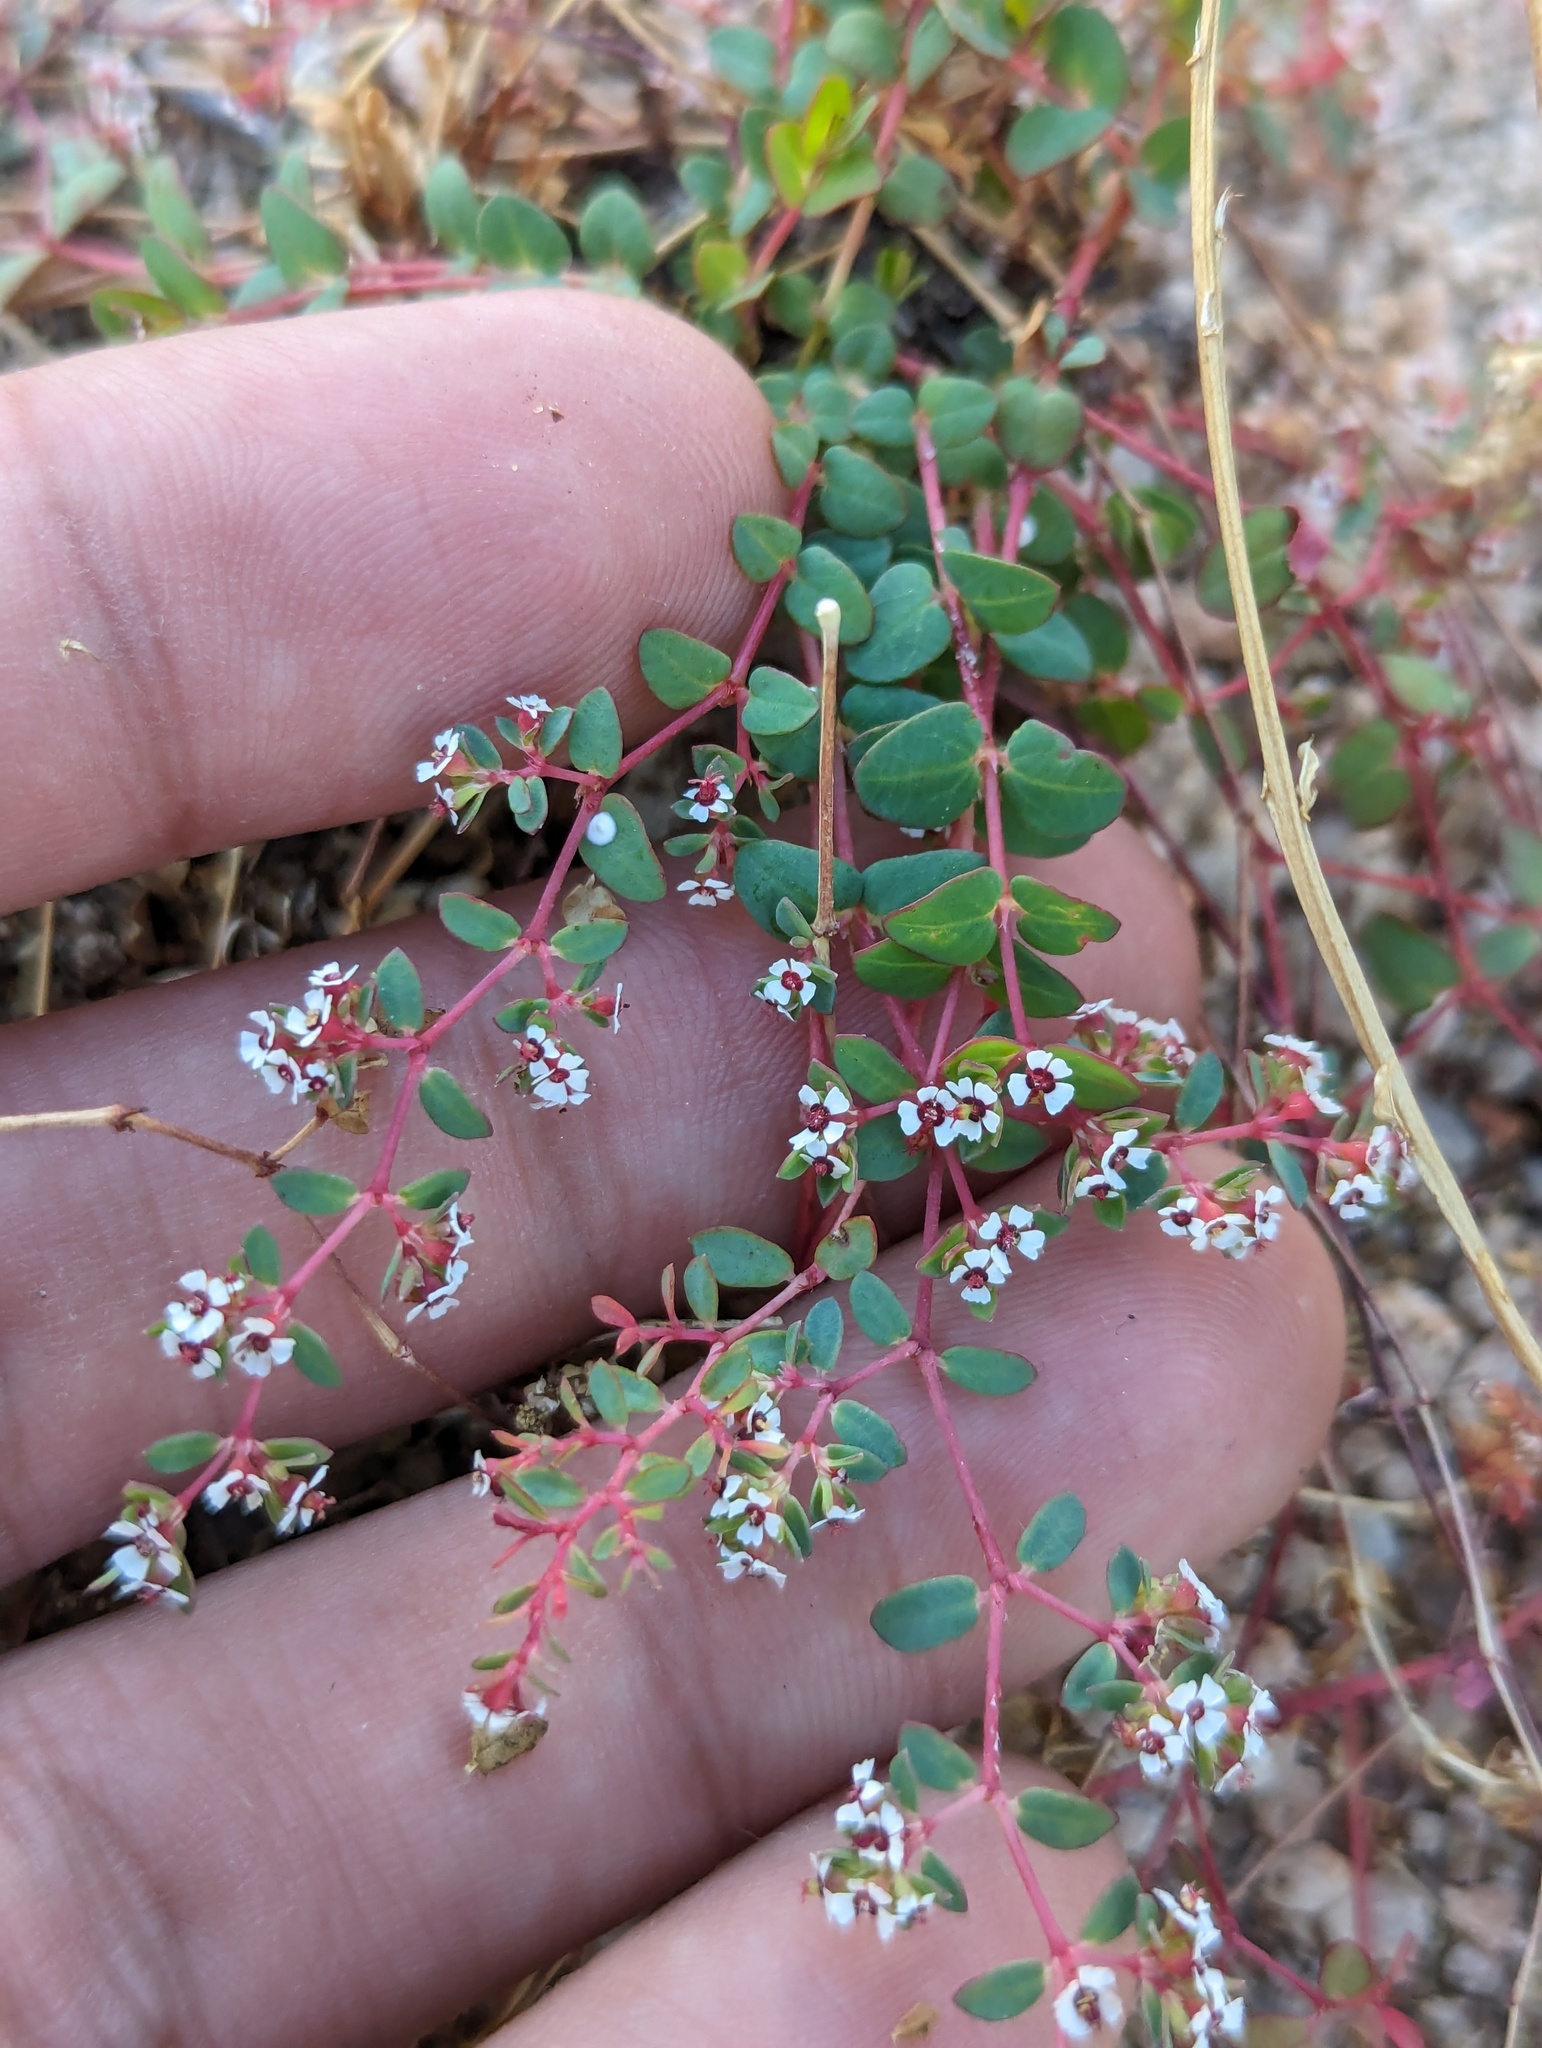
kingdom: Plantae
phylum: Tracheophyta
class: Magnoliopsida
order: Malpighiales
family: Euphorbiaceae
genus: Euphorbia
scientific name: Euphorbia polycarpa
